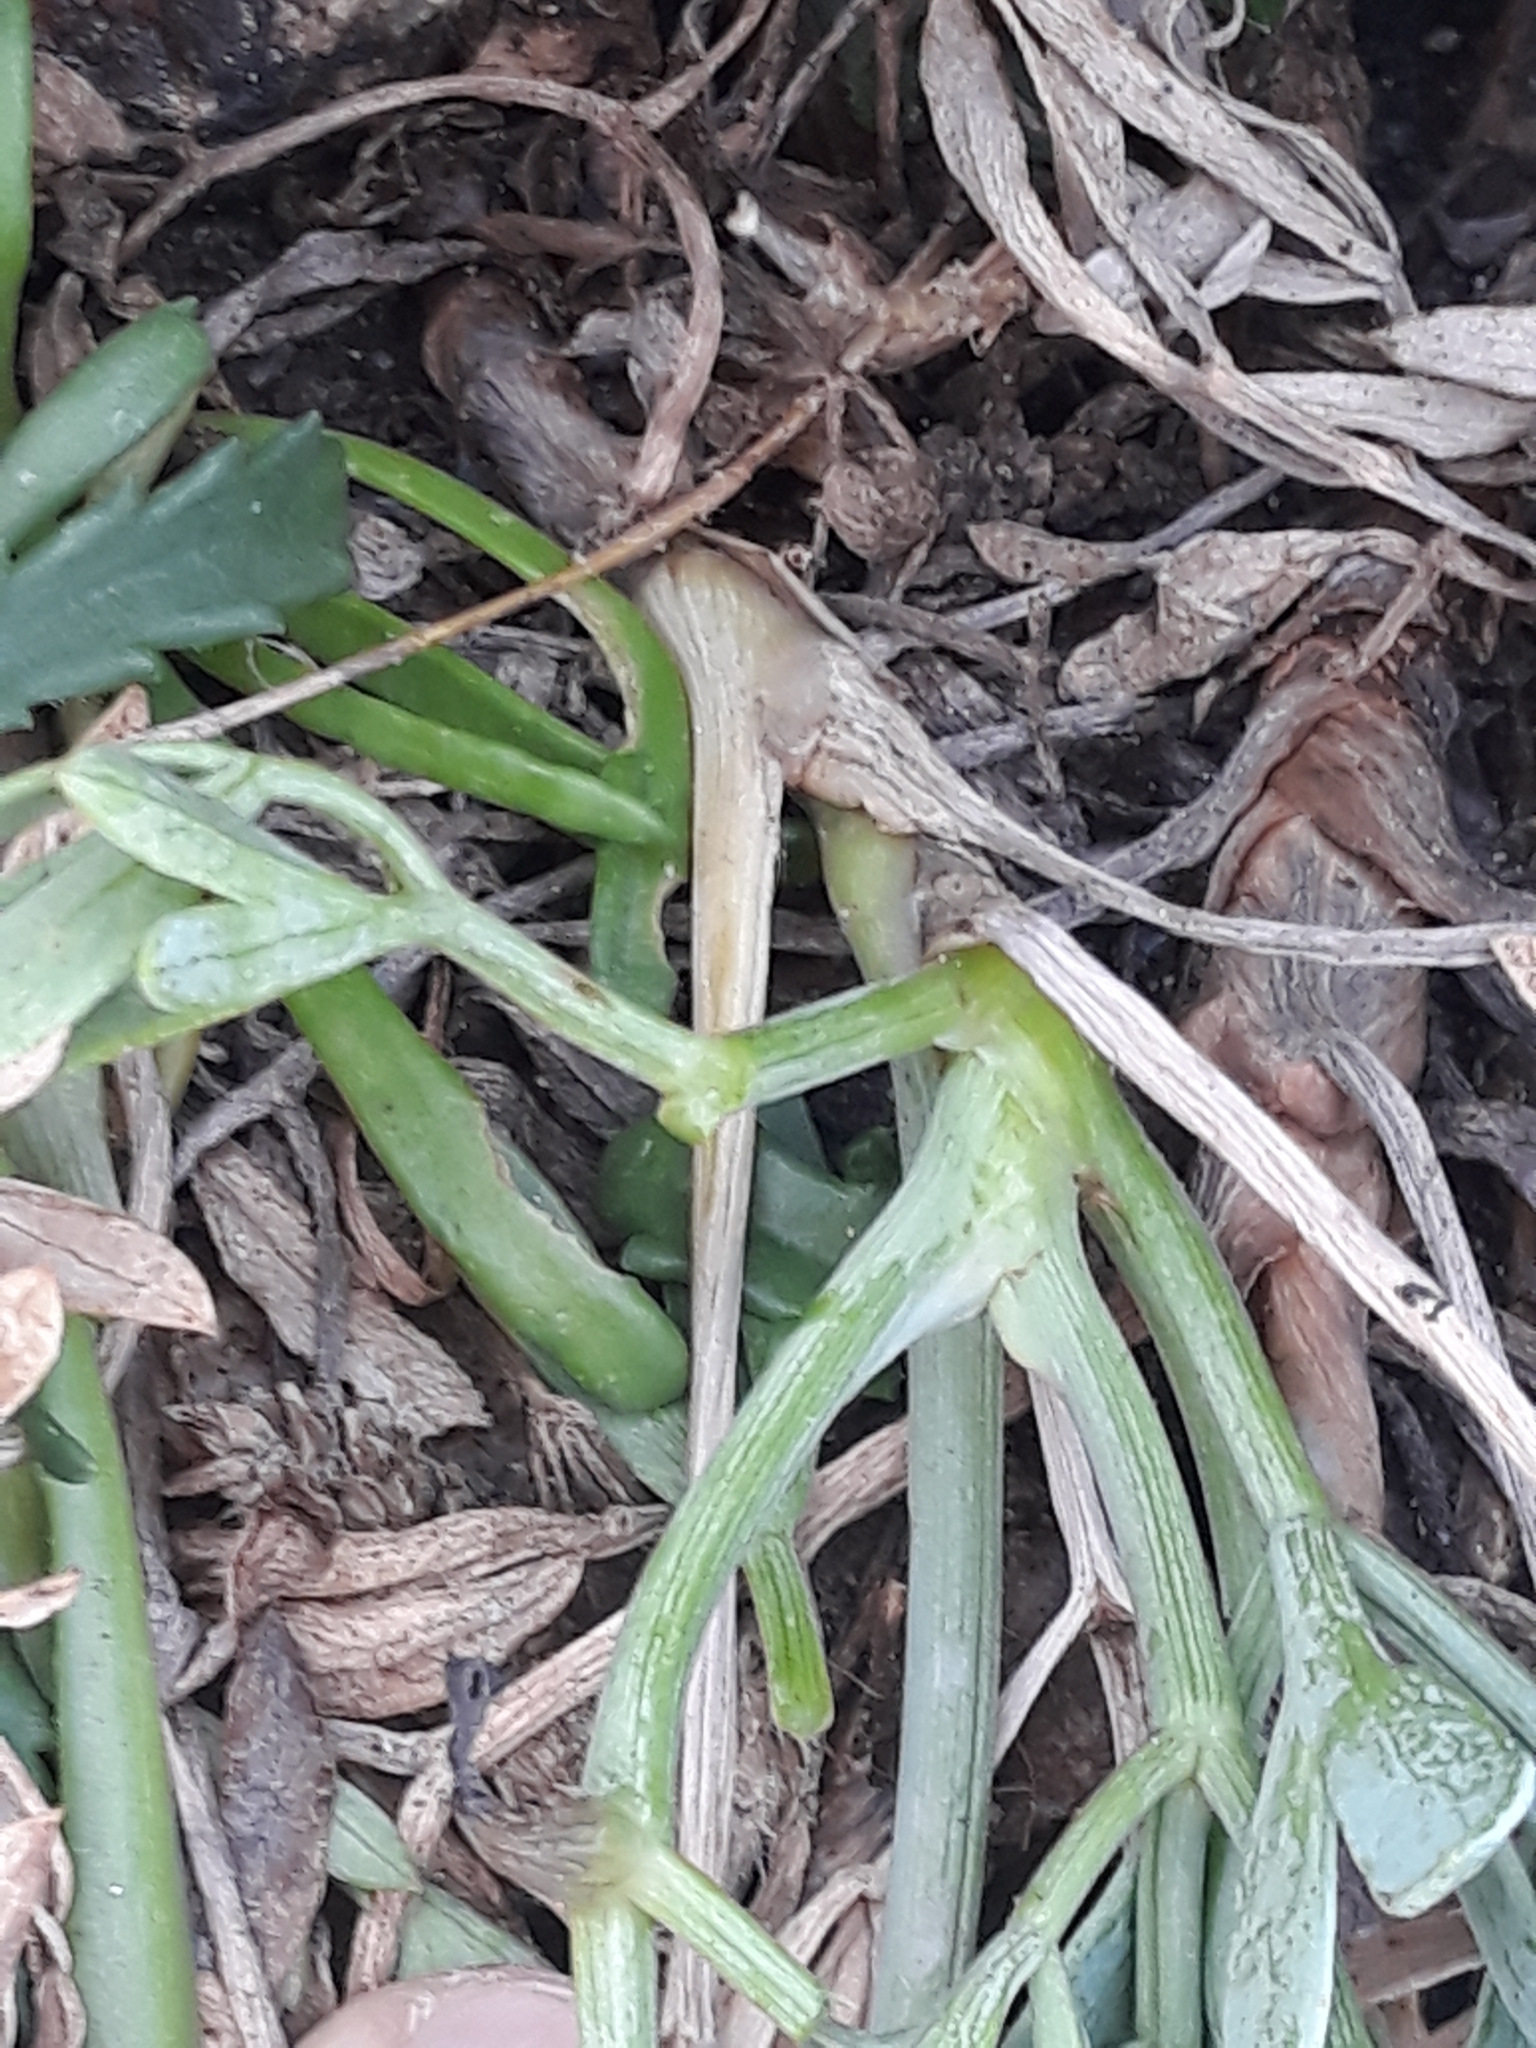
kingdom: Plantae
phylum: Tracheophyta
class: Magnoliopsida
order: Apiales
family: Apiaceae
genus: Crithmum
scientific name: Crithmum maritimum
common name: Rock samphire
